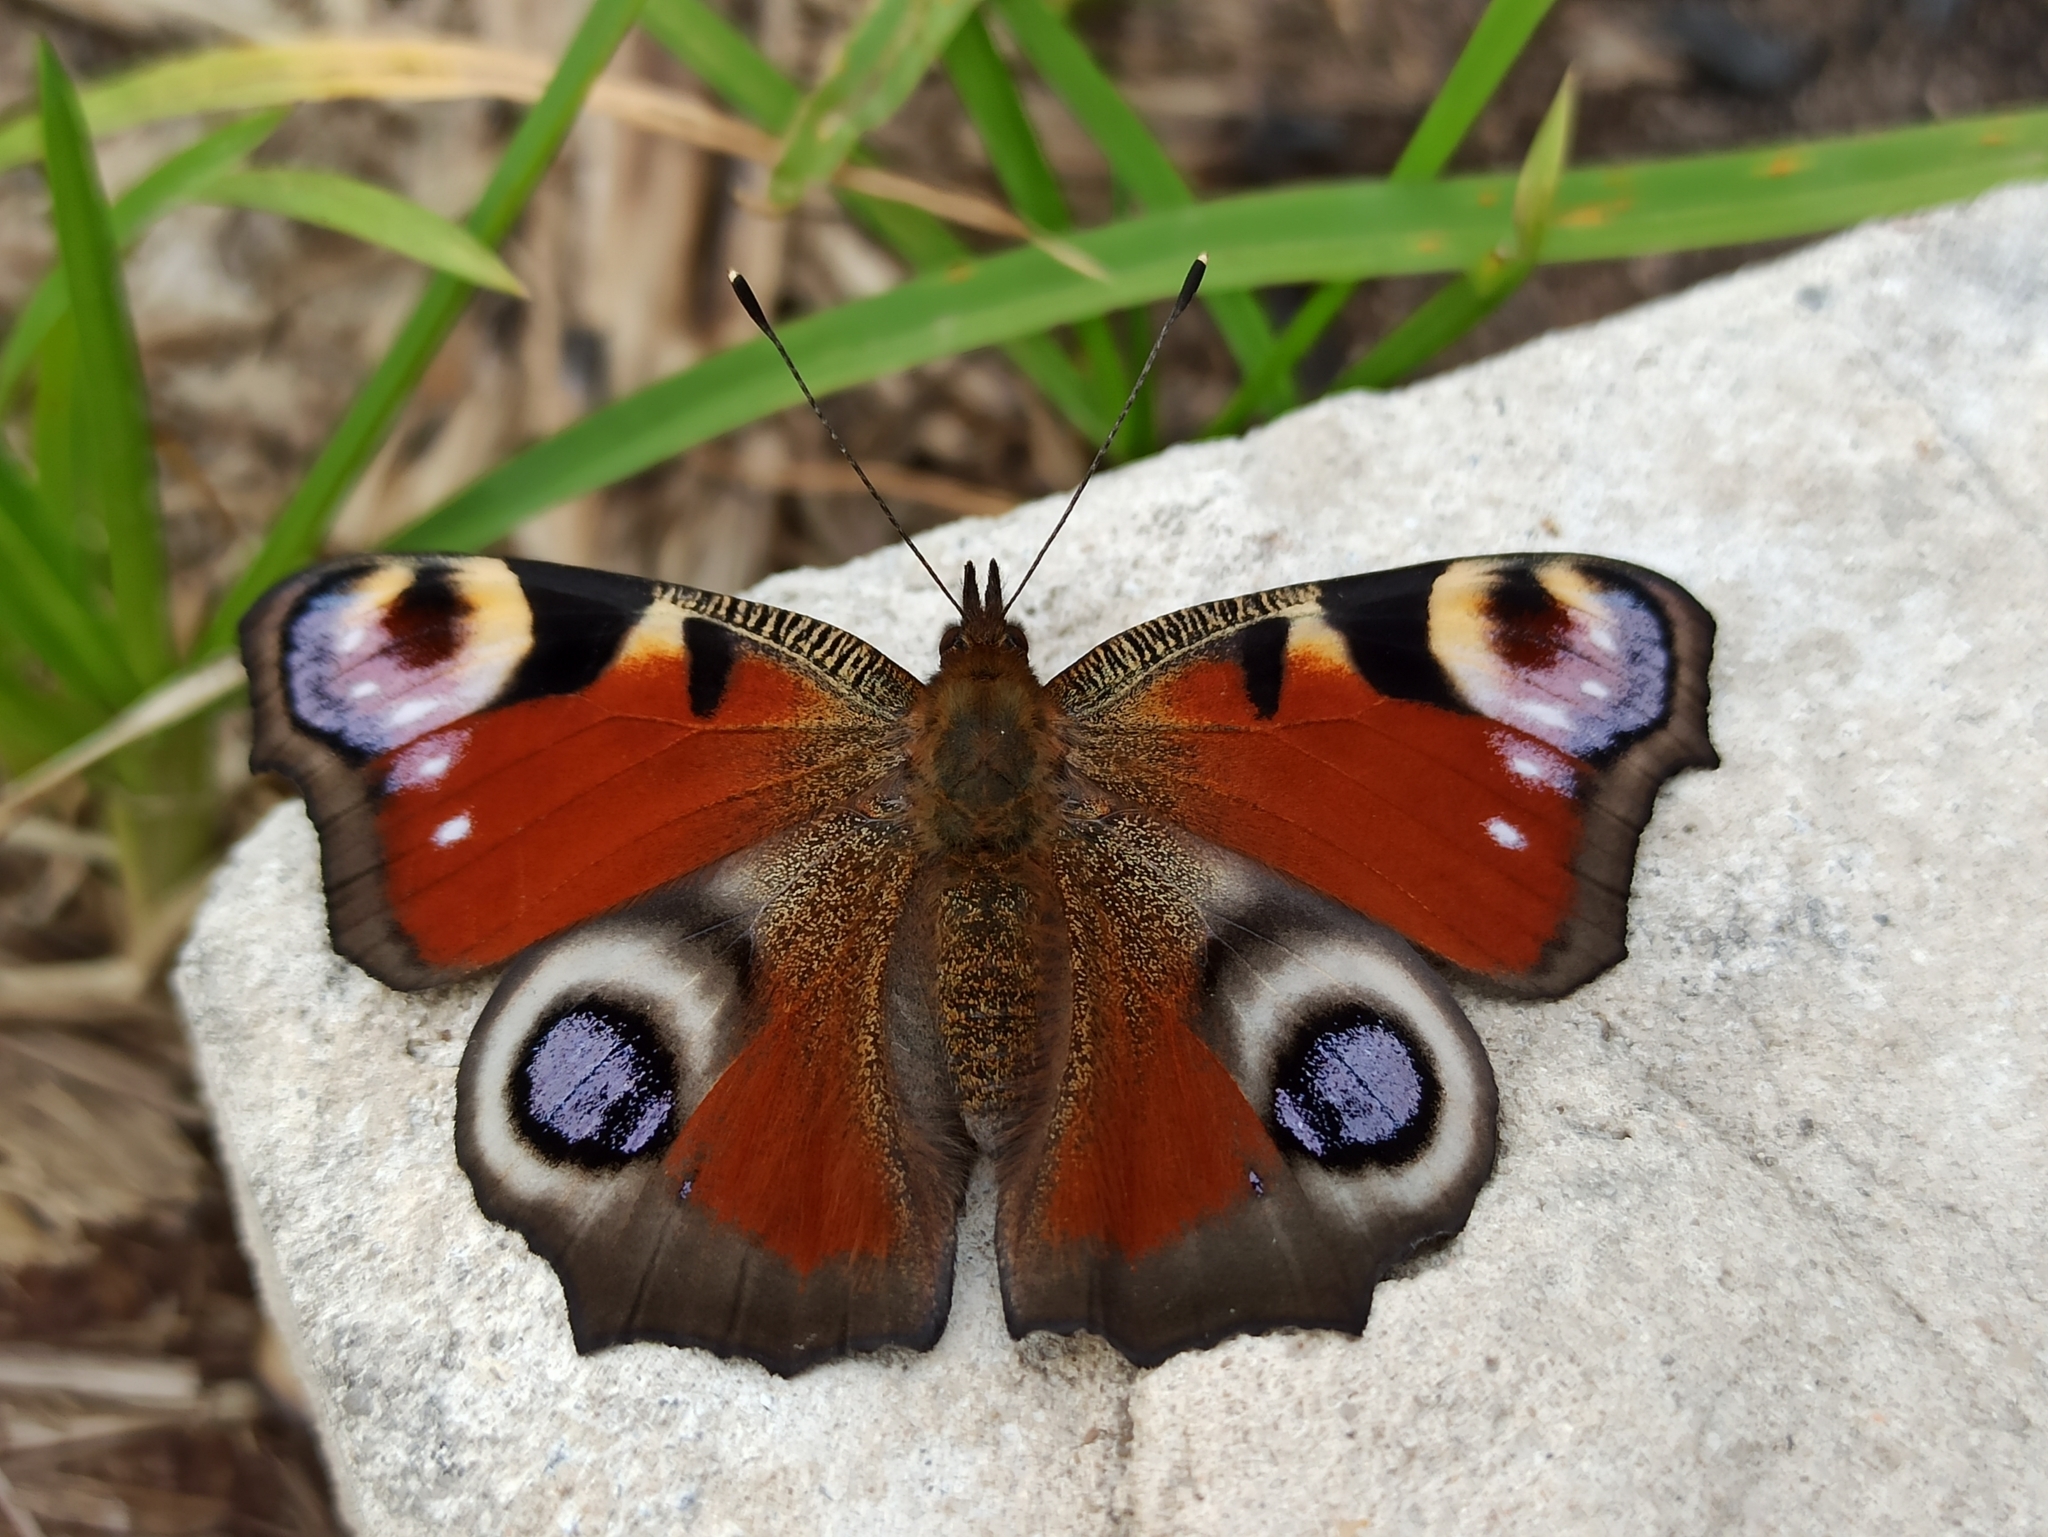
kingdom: Animalia
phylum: Arthropoda
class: Insecta
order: Lepidoptera
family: Nymphalidae
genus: Aglais
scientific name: Aglais io
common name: Peacock
